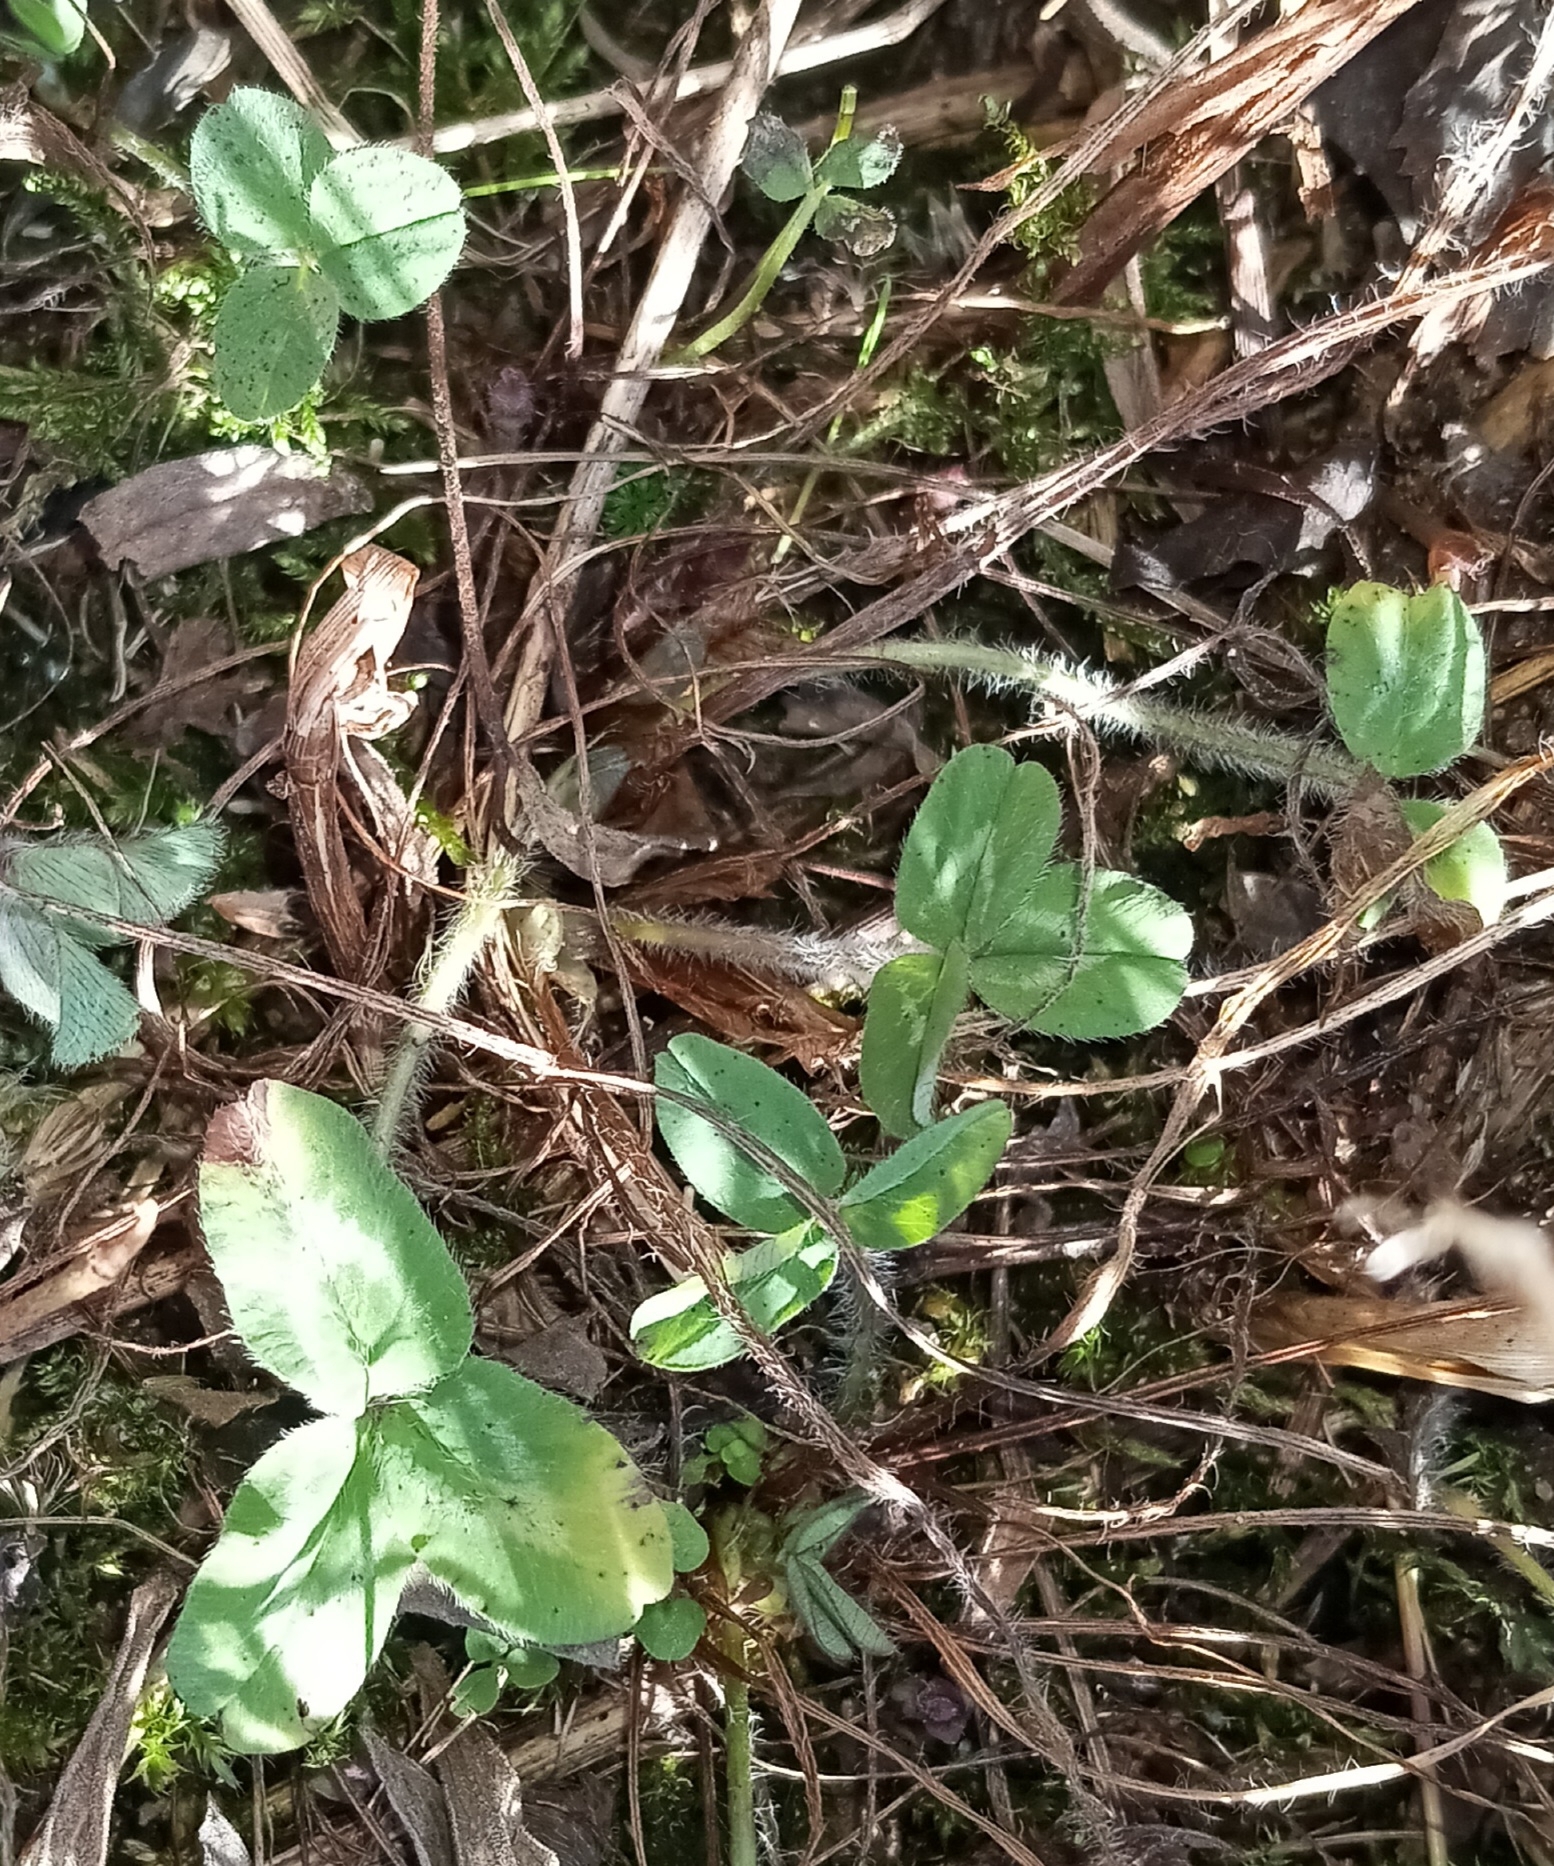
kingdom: Plantae
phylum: Tracheophyta
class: Magnoliopsida
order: Fabales
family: Fabaceae
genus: Trifolium
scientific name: Trifolium pratense
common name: Red clover
